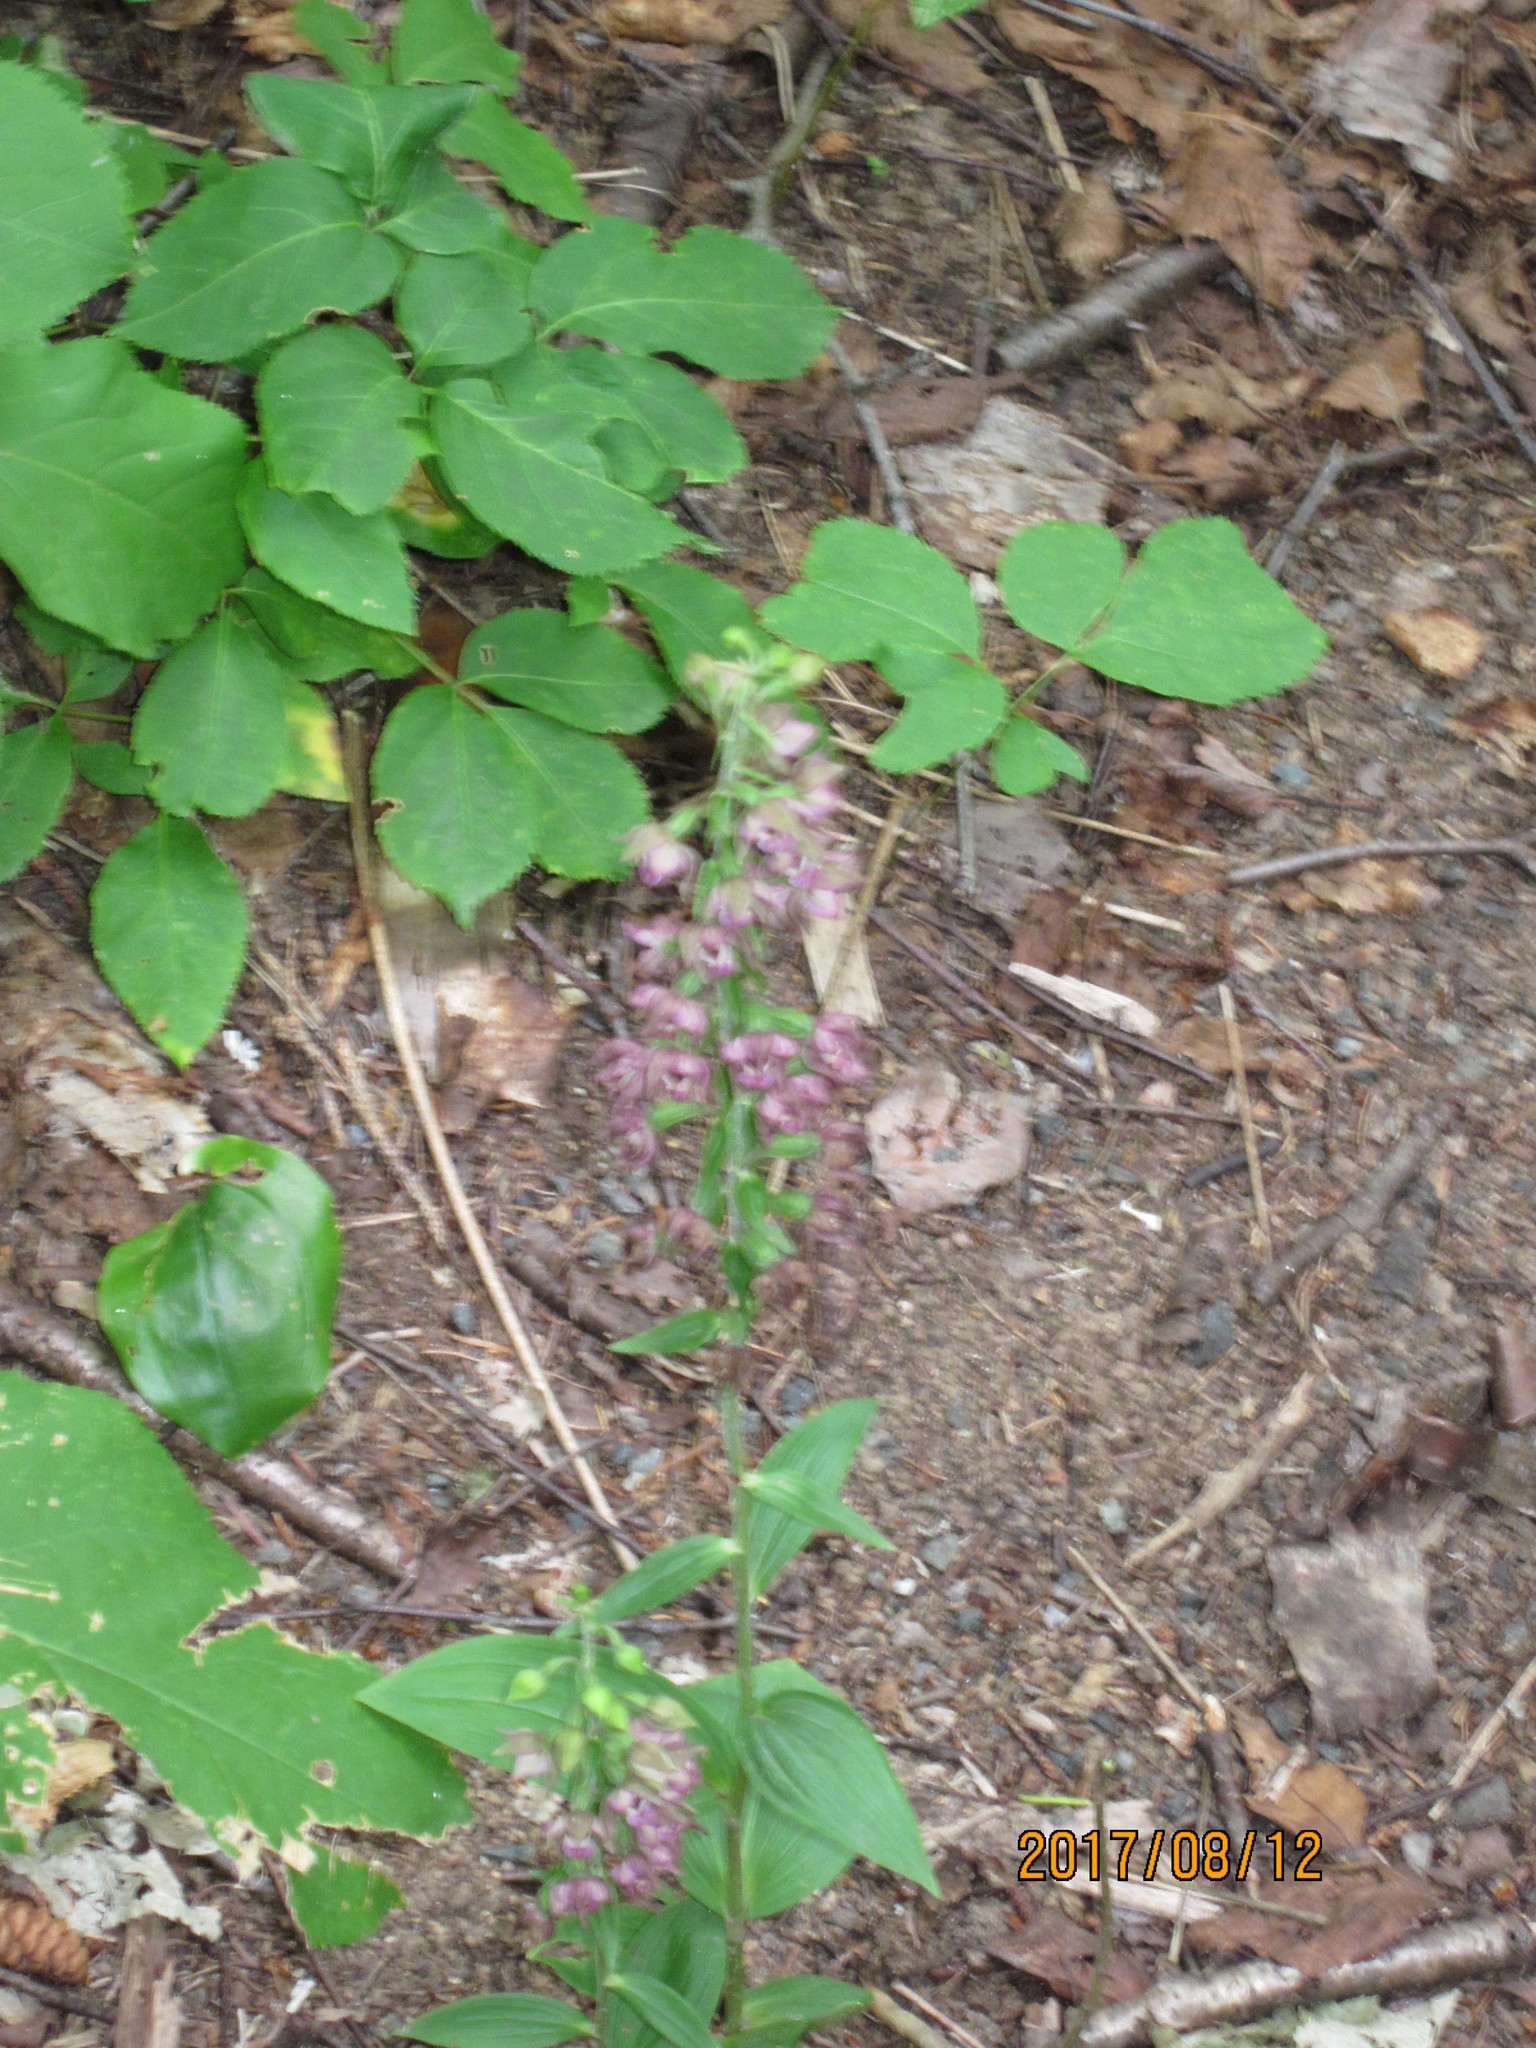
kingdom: Plantae
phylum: Tracheophyta
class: Liliopsida
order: Asparagales
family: Orchidaceae
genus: Epipactis
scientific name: Epipactis helleborine
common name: Broad-leaved helleborine
